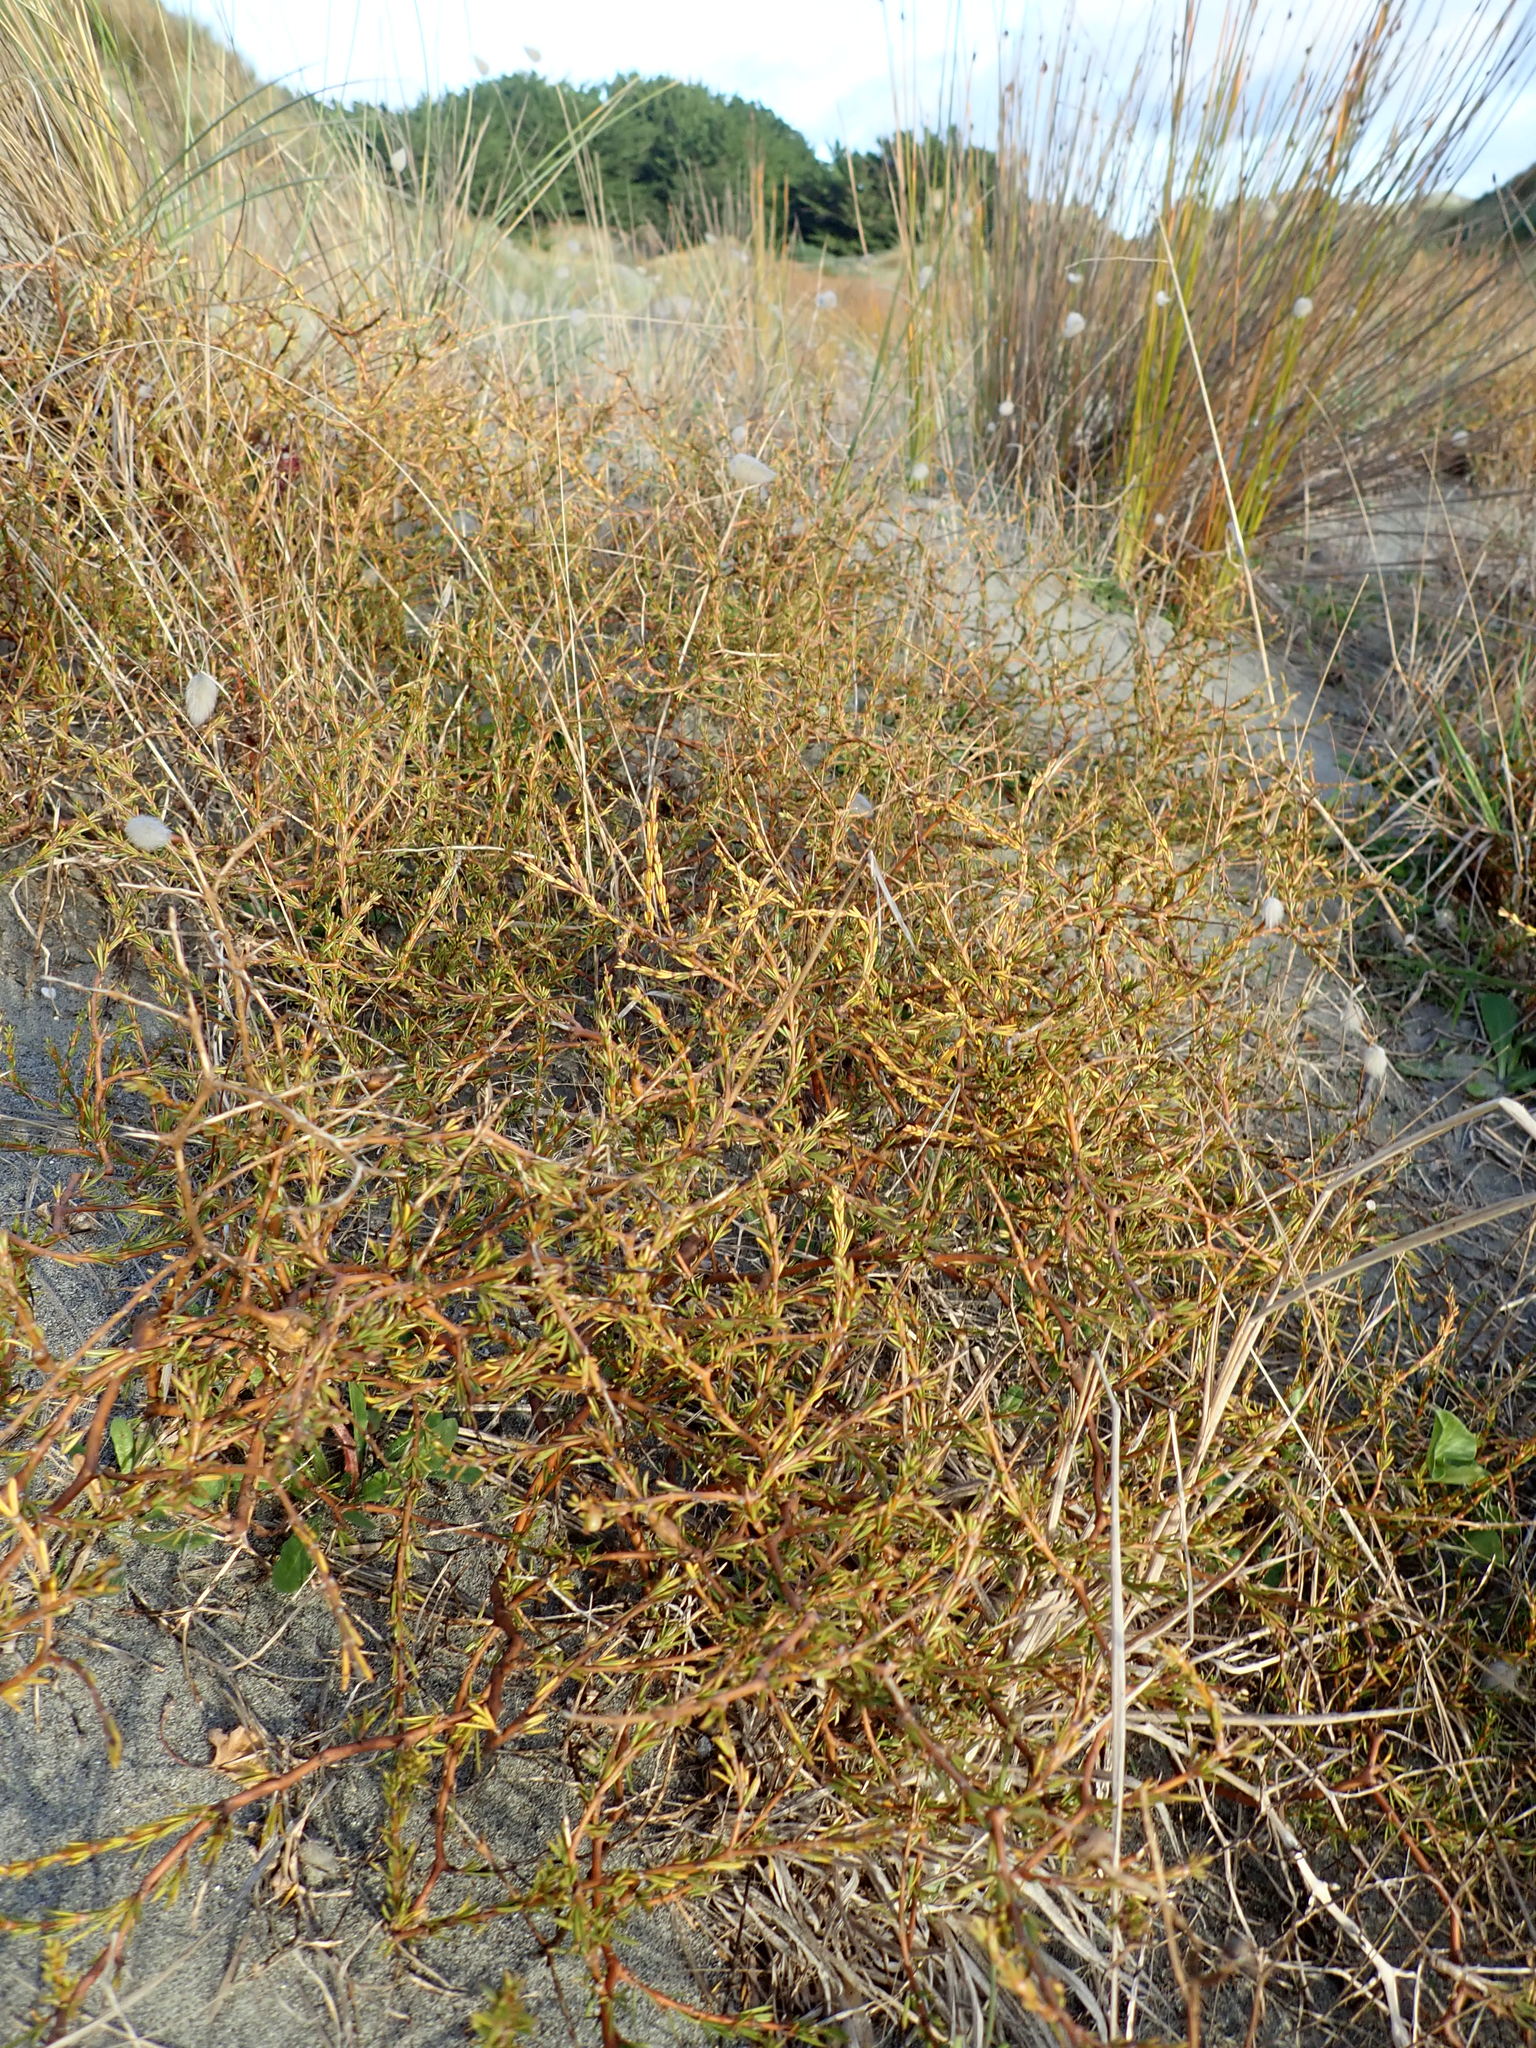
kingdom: Plantae
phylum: Tracheophyta
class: Magnoliopsida
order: Gentianales
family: Rubiaceae
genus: Coprosma
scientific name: Coprosma acerosa
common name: Sand coprosma
